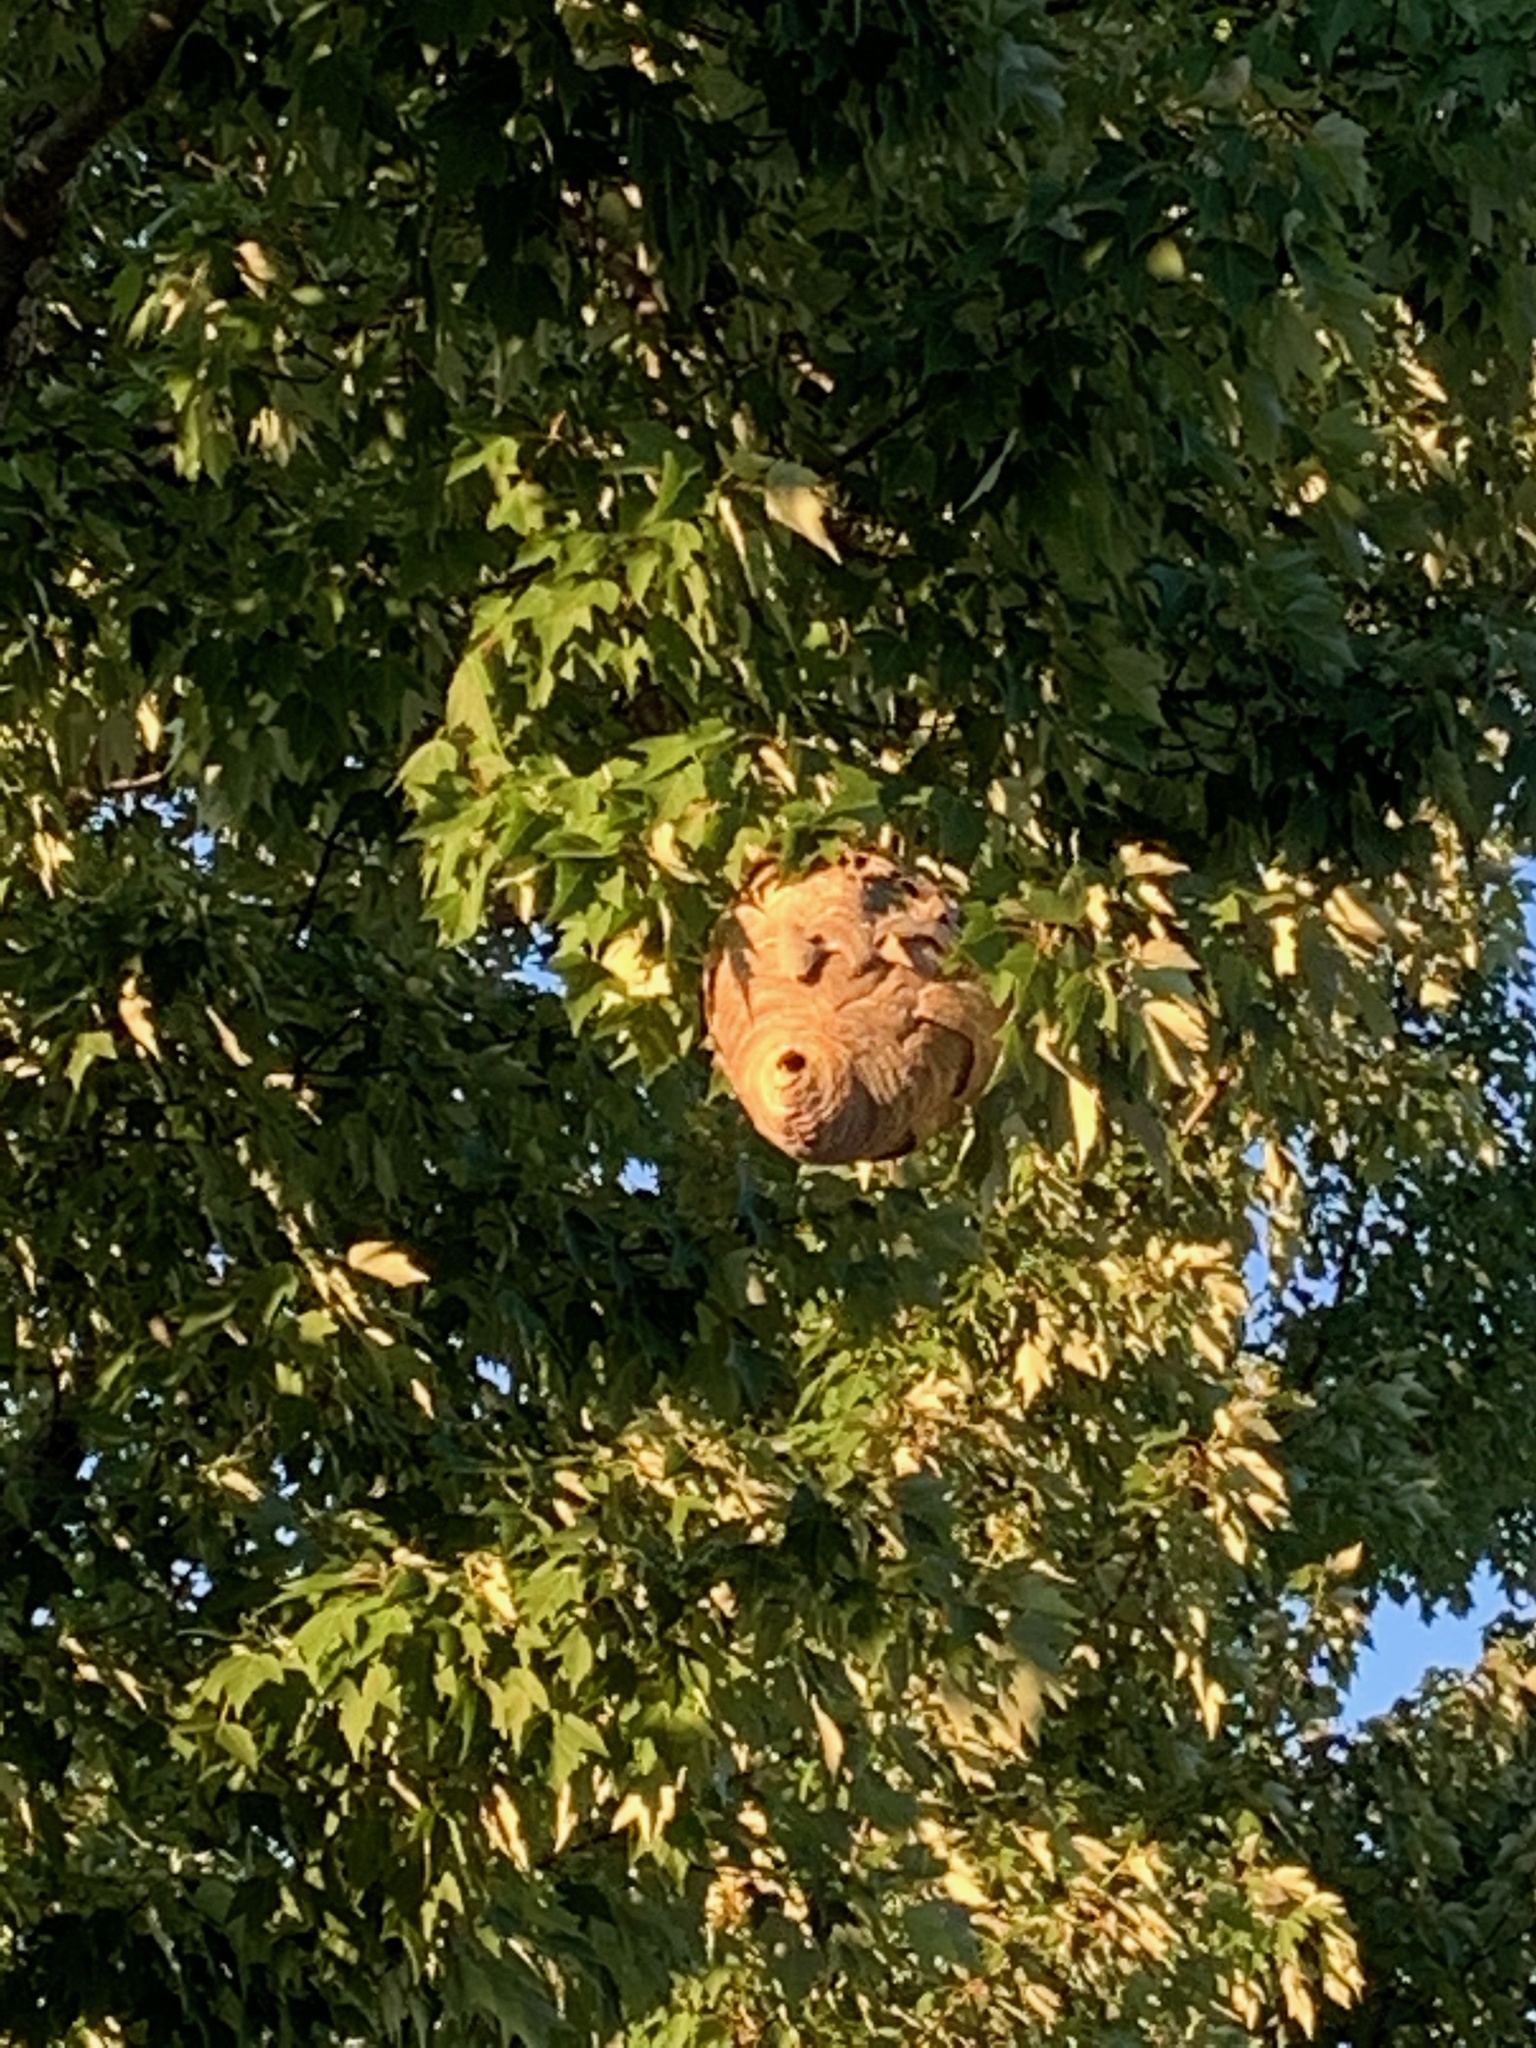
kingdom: Animalia
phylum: Arthropoda
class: Insecta
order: Hymenoptera
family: Vespidae
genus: Dolichovespula
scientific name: Dolichovespula
